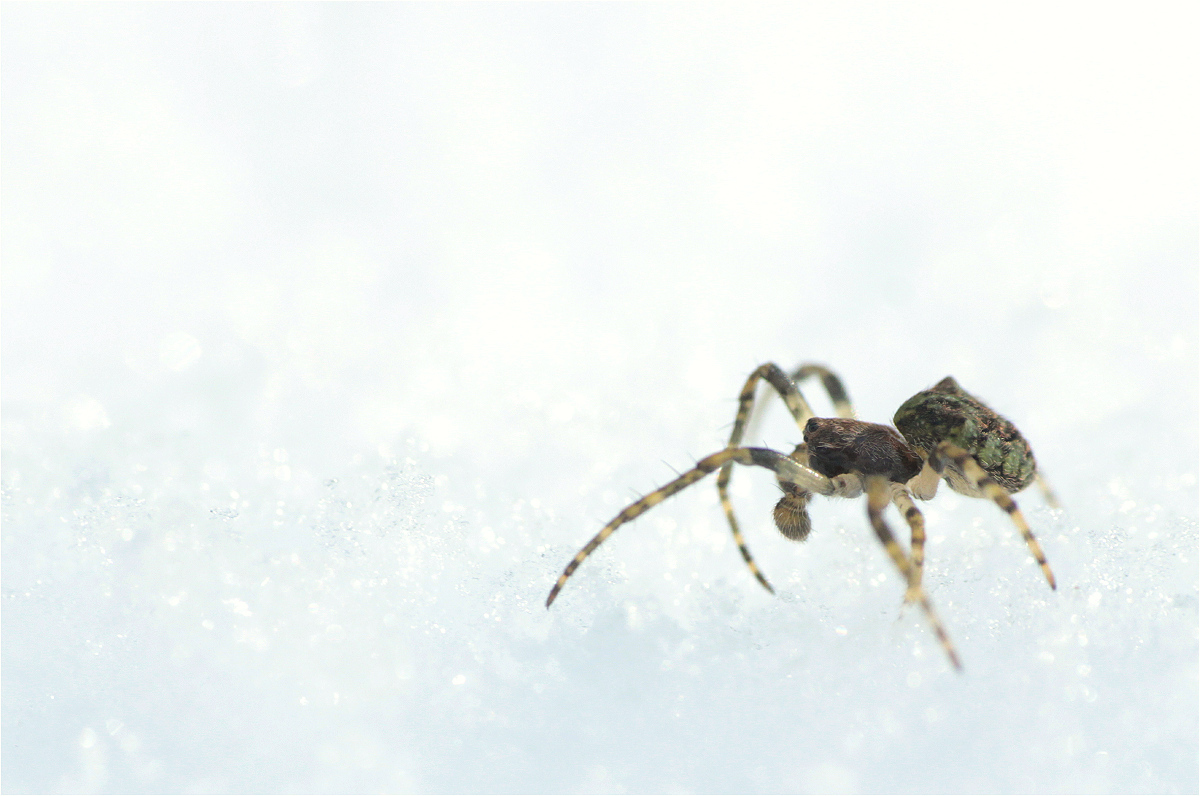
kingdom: Animalia
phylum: Arthropoda
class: Arachnida
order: Araneae
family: Araneidae
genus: Gibbaranea
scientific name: Gibbaranea gibbosa
